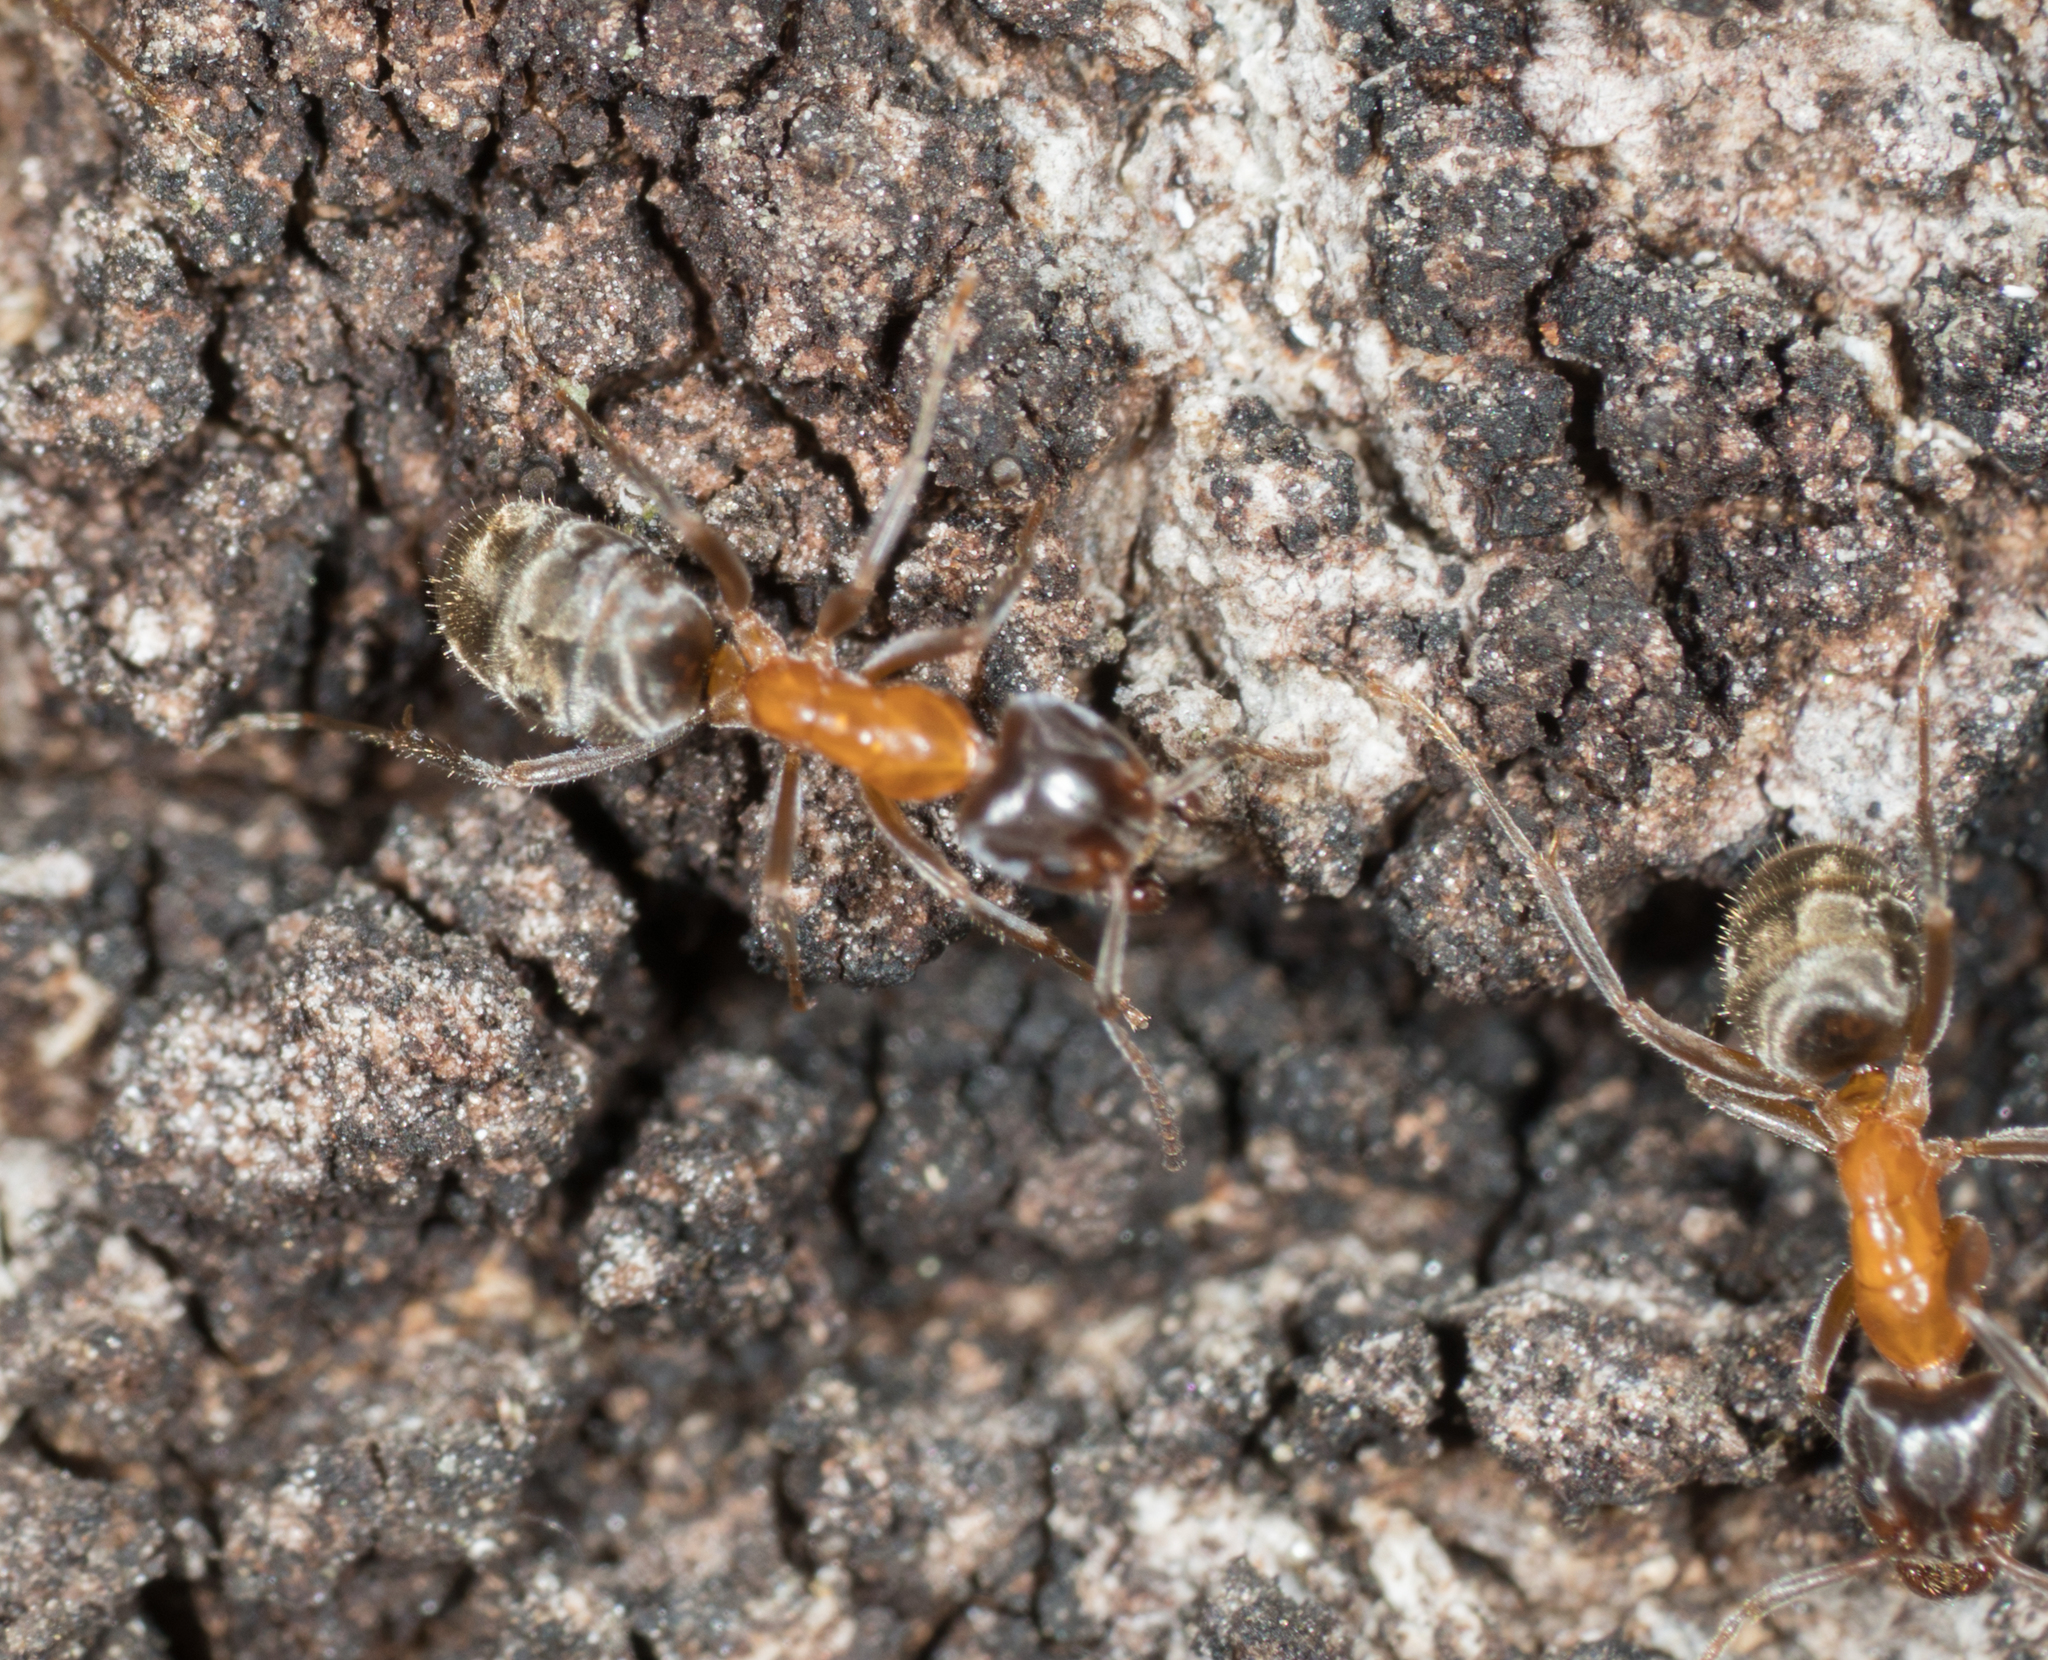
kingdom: Animalia
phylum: Arthropoda
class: Insecta
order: Hymenoptera
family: Formicidae
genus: Liometopum
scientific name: Liometopum occidentale
